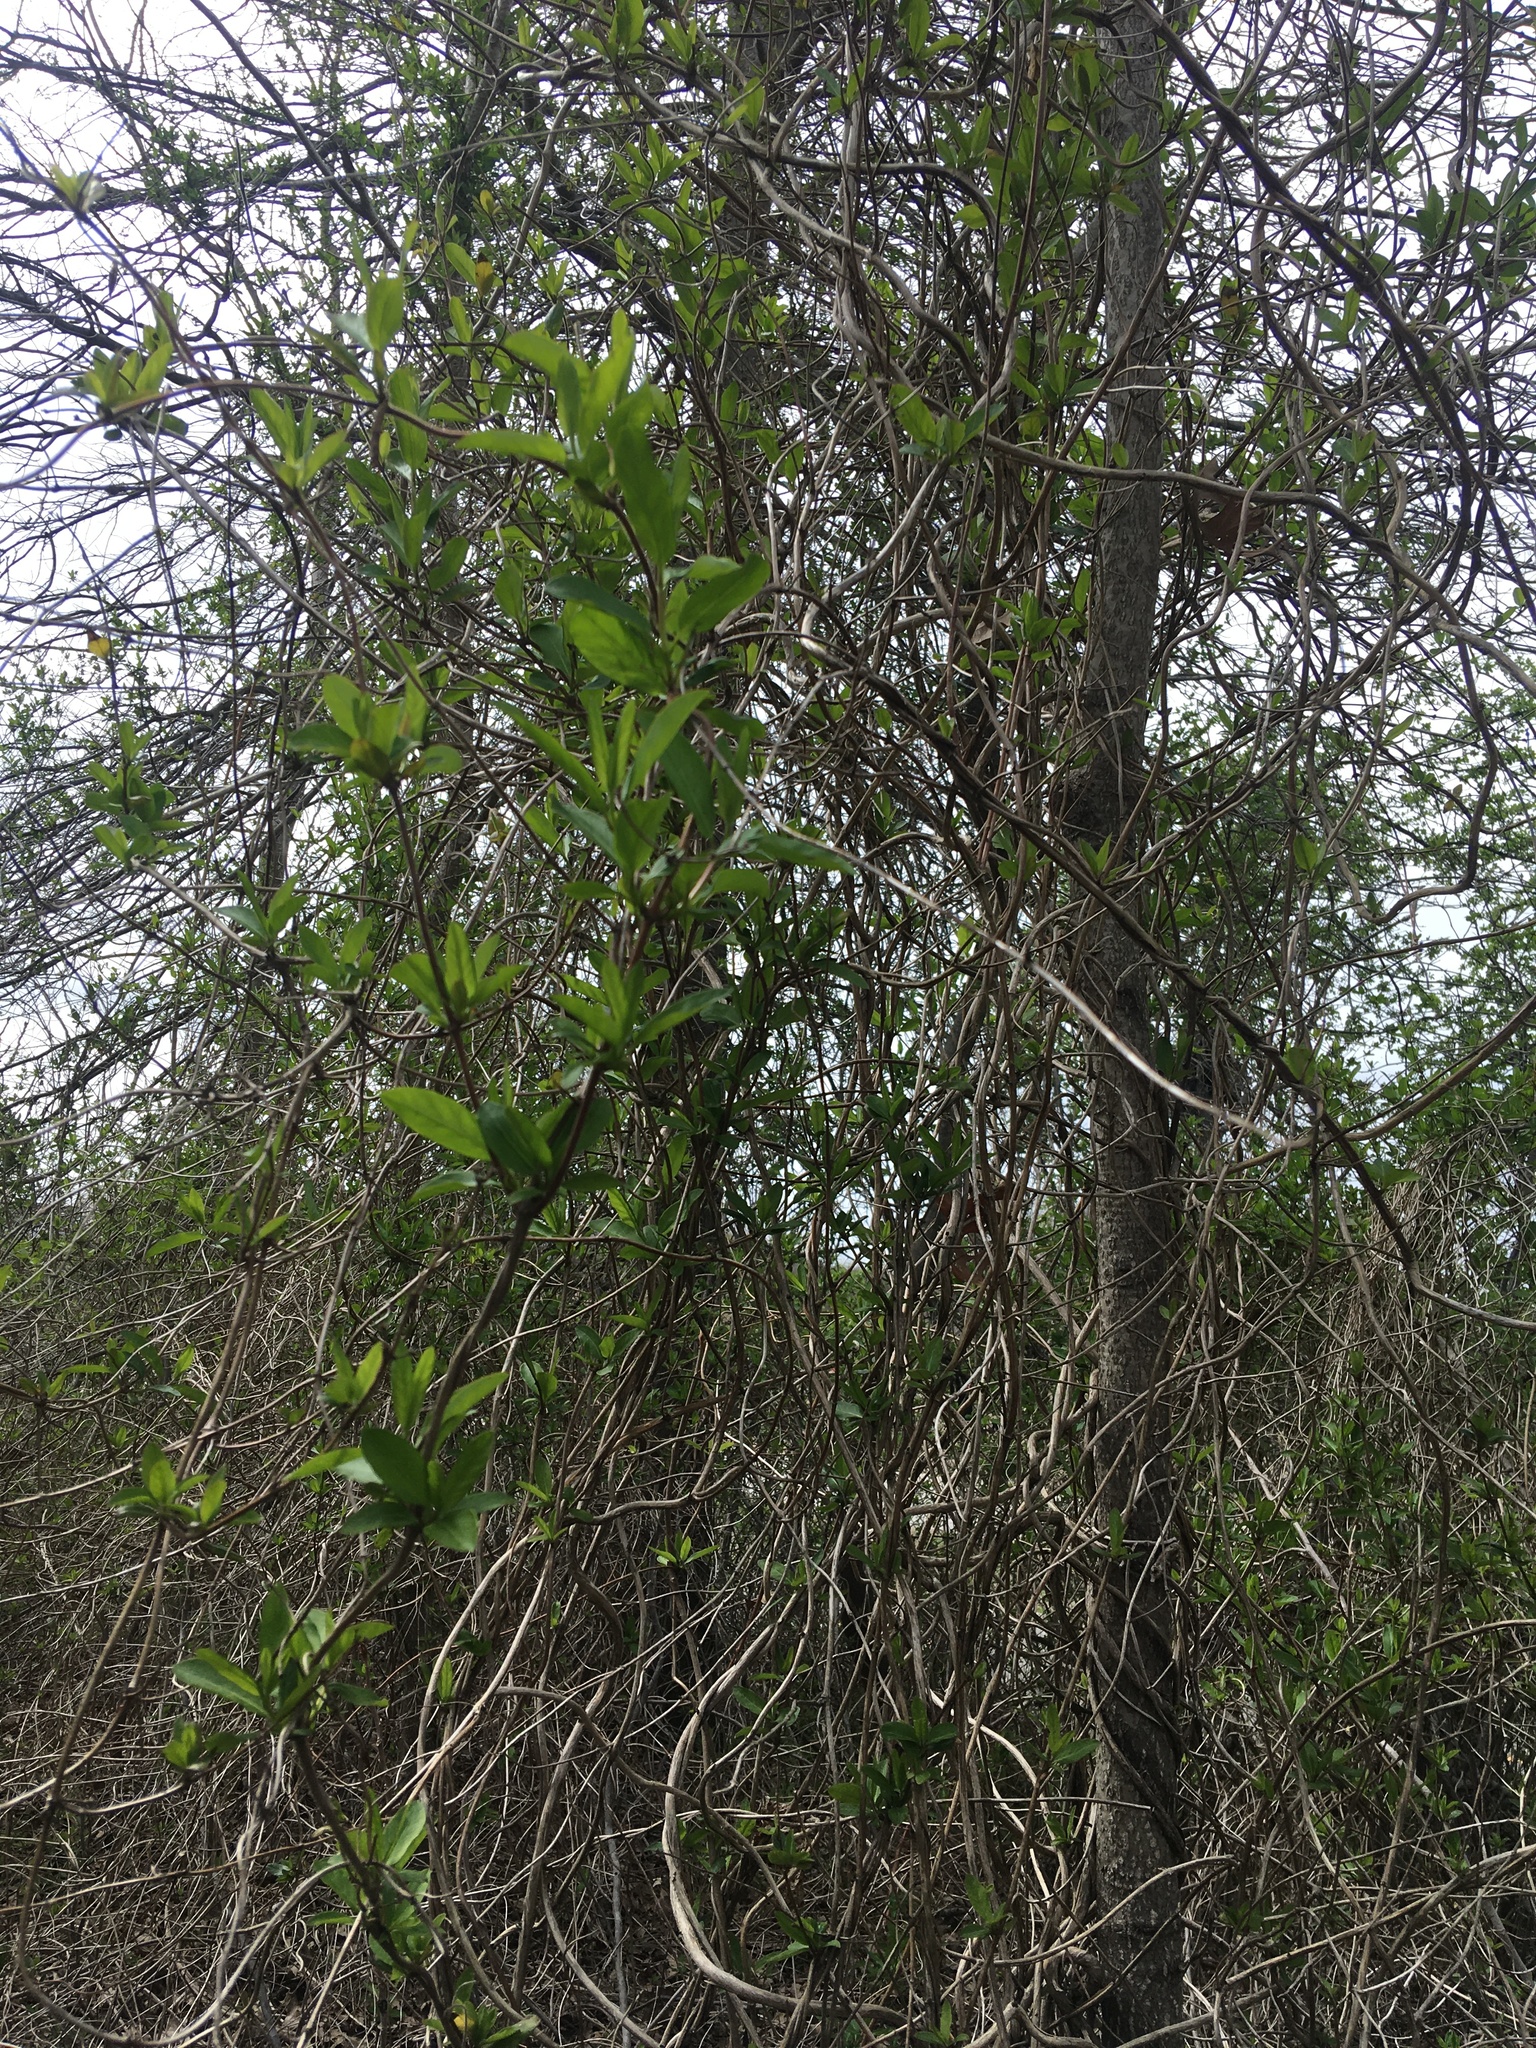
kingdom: Plantae
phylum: Tracheophyta
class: Magnoliopsida
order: Dipsacales
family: Caprifoliaceae
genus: Lonicera
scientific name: Lonicera japonica
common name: Japanese honeysuckle
